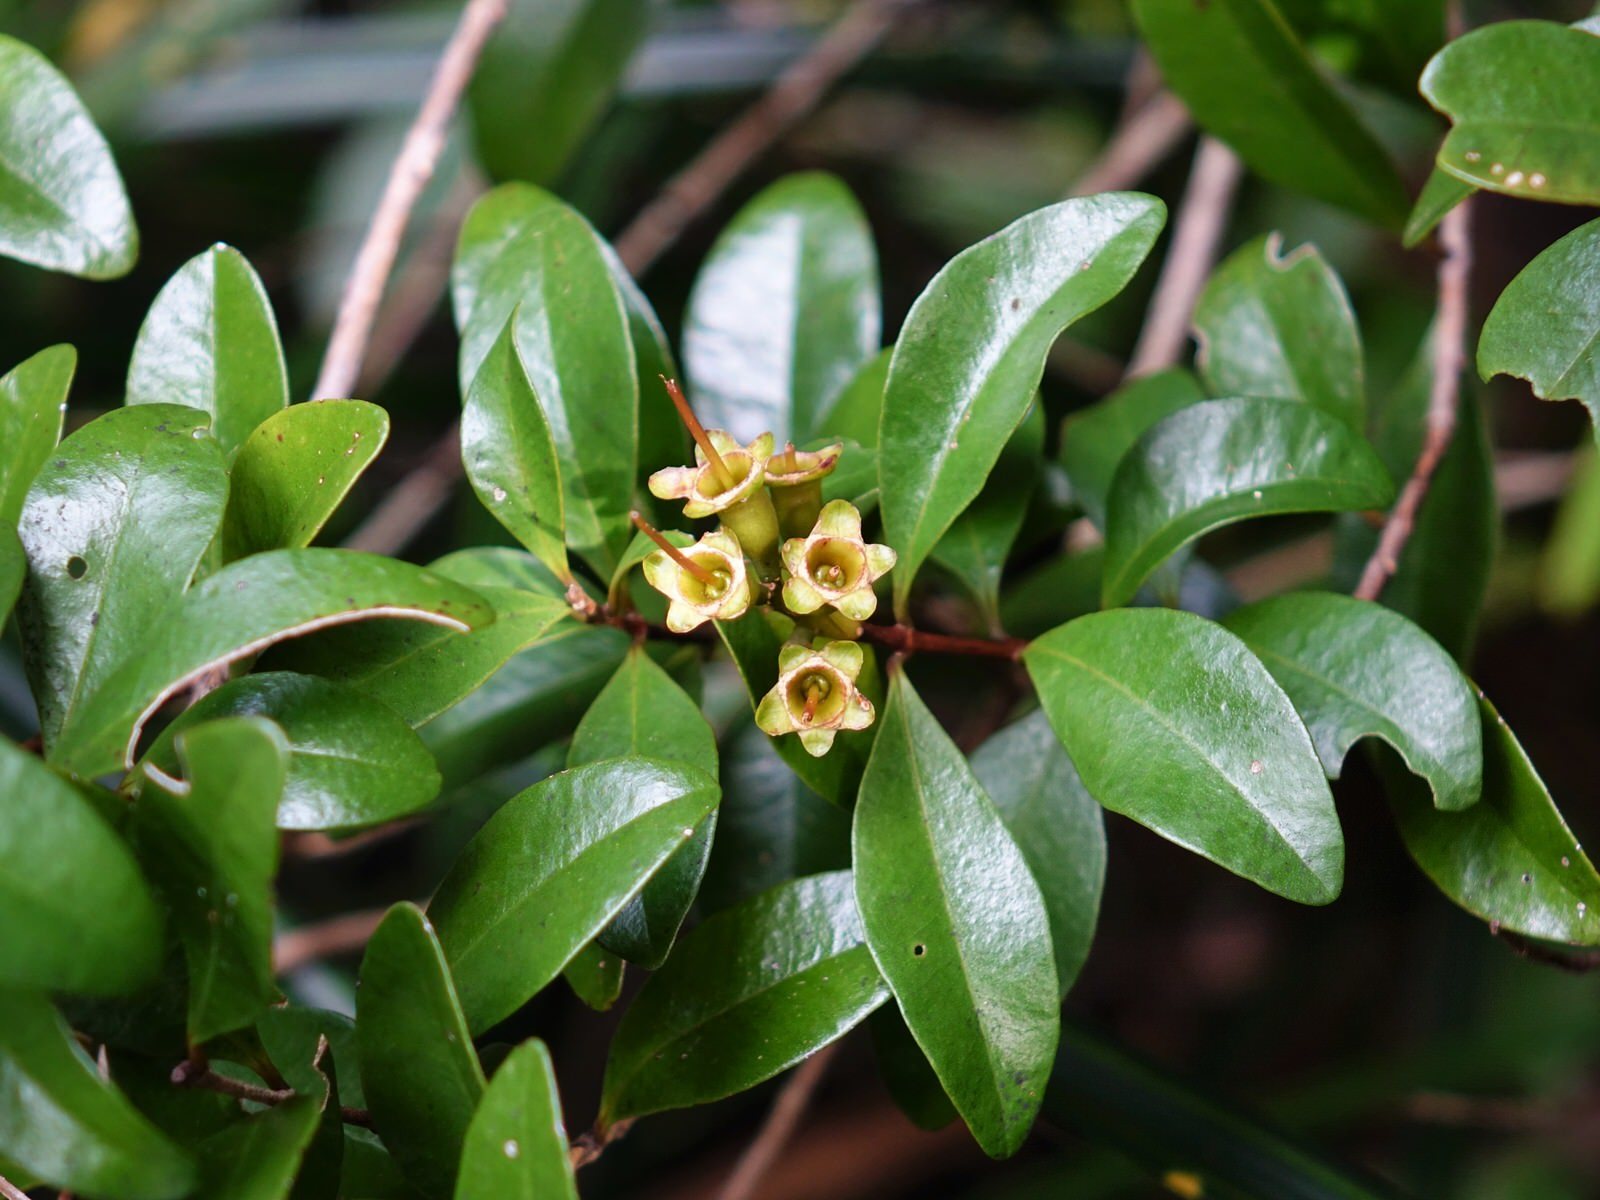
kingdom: Plantae
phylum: Tracheophyta
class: Magnoliopsida
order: Myrtales
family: Myrtaceae
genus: Metrosideros
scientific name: Metrosideros fulgens
